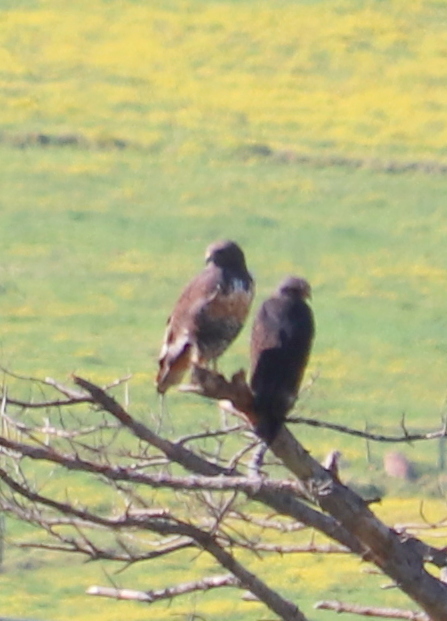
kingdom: Animalia
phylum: Chordata
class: Aves
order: Accipitriformes
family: Accipitridae
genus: Buteo
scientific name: Buteo rufofuscus
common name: Jackal buzzard
